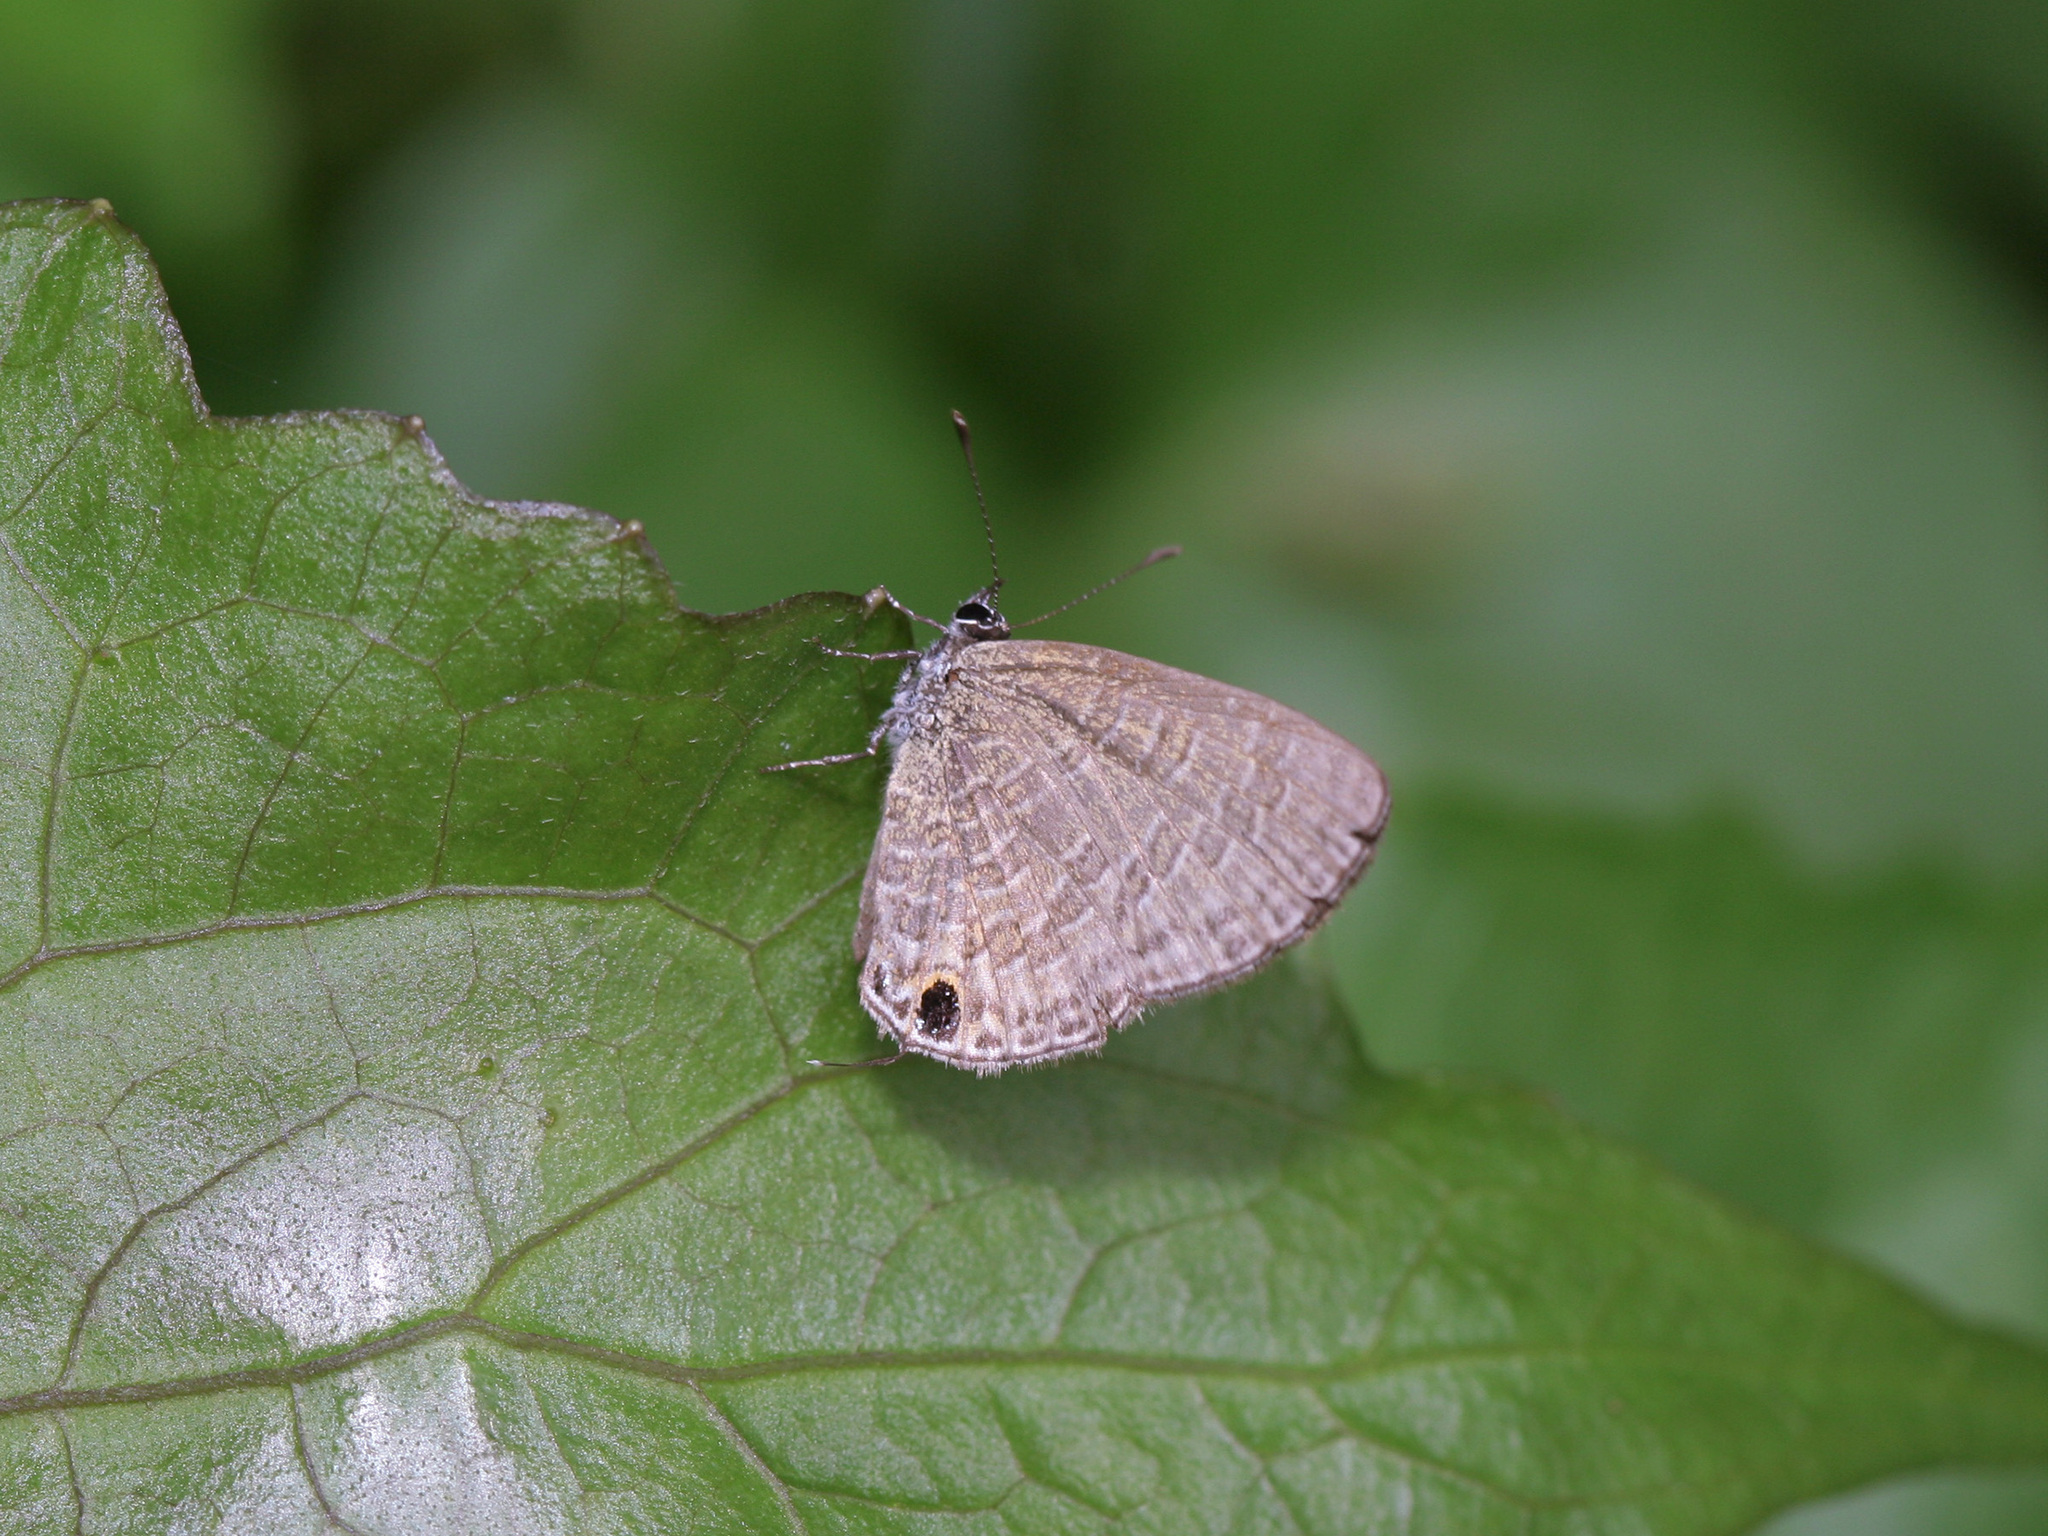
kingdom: Animalia
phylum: Arthropoda
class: Insecta
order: Lepidoptera
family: Lycaenidae
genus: Prosotas
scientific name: Prosotas nora
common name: Common line blue
